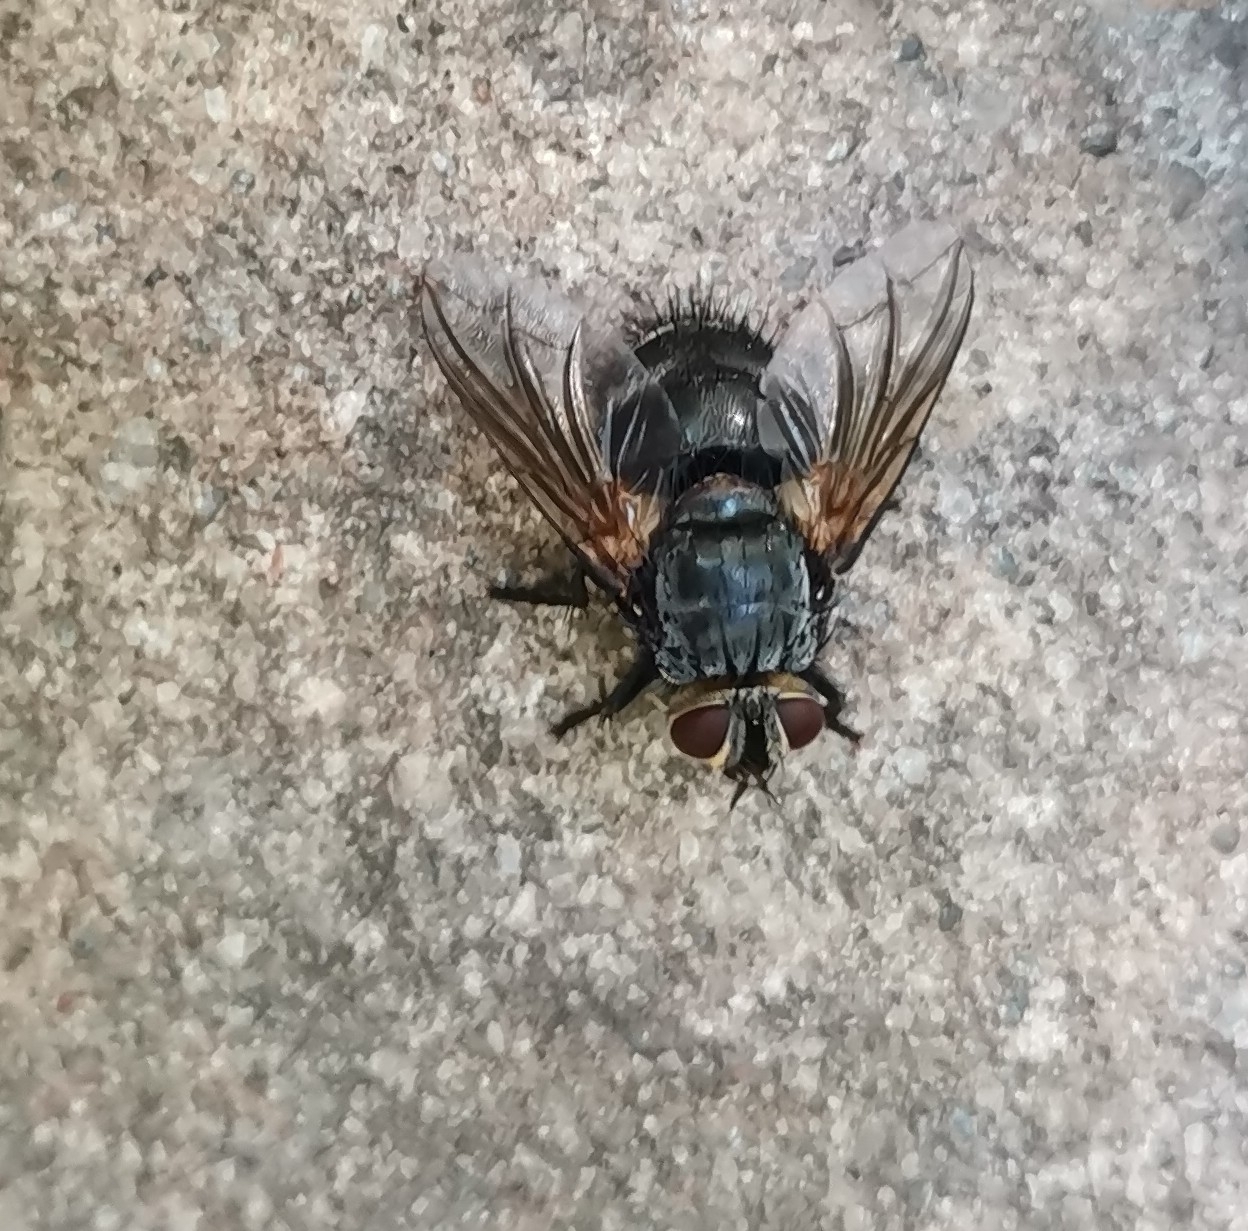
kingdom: Animalia
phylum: Arthropoda
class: Insecta
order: Diptera
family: Tachinidae
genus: Nemoraea
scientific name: Nemoraea pellucida
